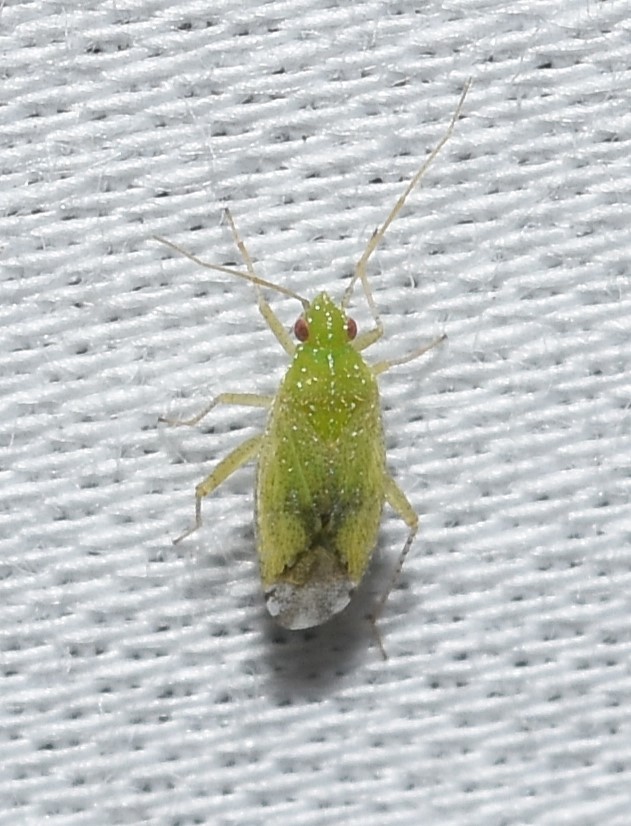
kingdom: Animalia
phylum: Arthropoda
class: Insecta
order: Hemiptera
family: Miridae
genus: Keltonia
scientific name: Keltonia tuckeri
